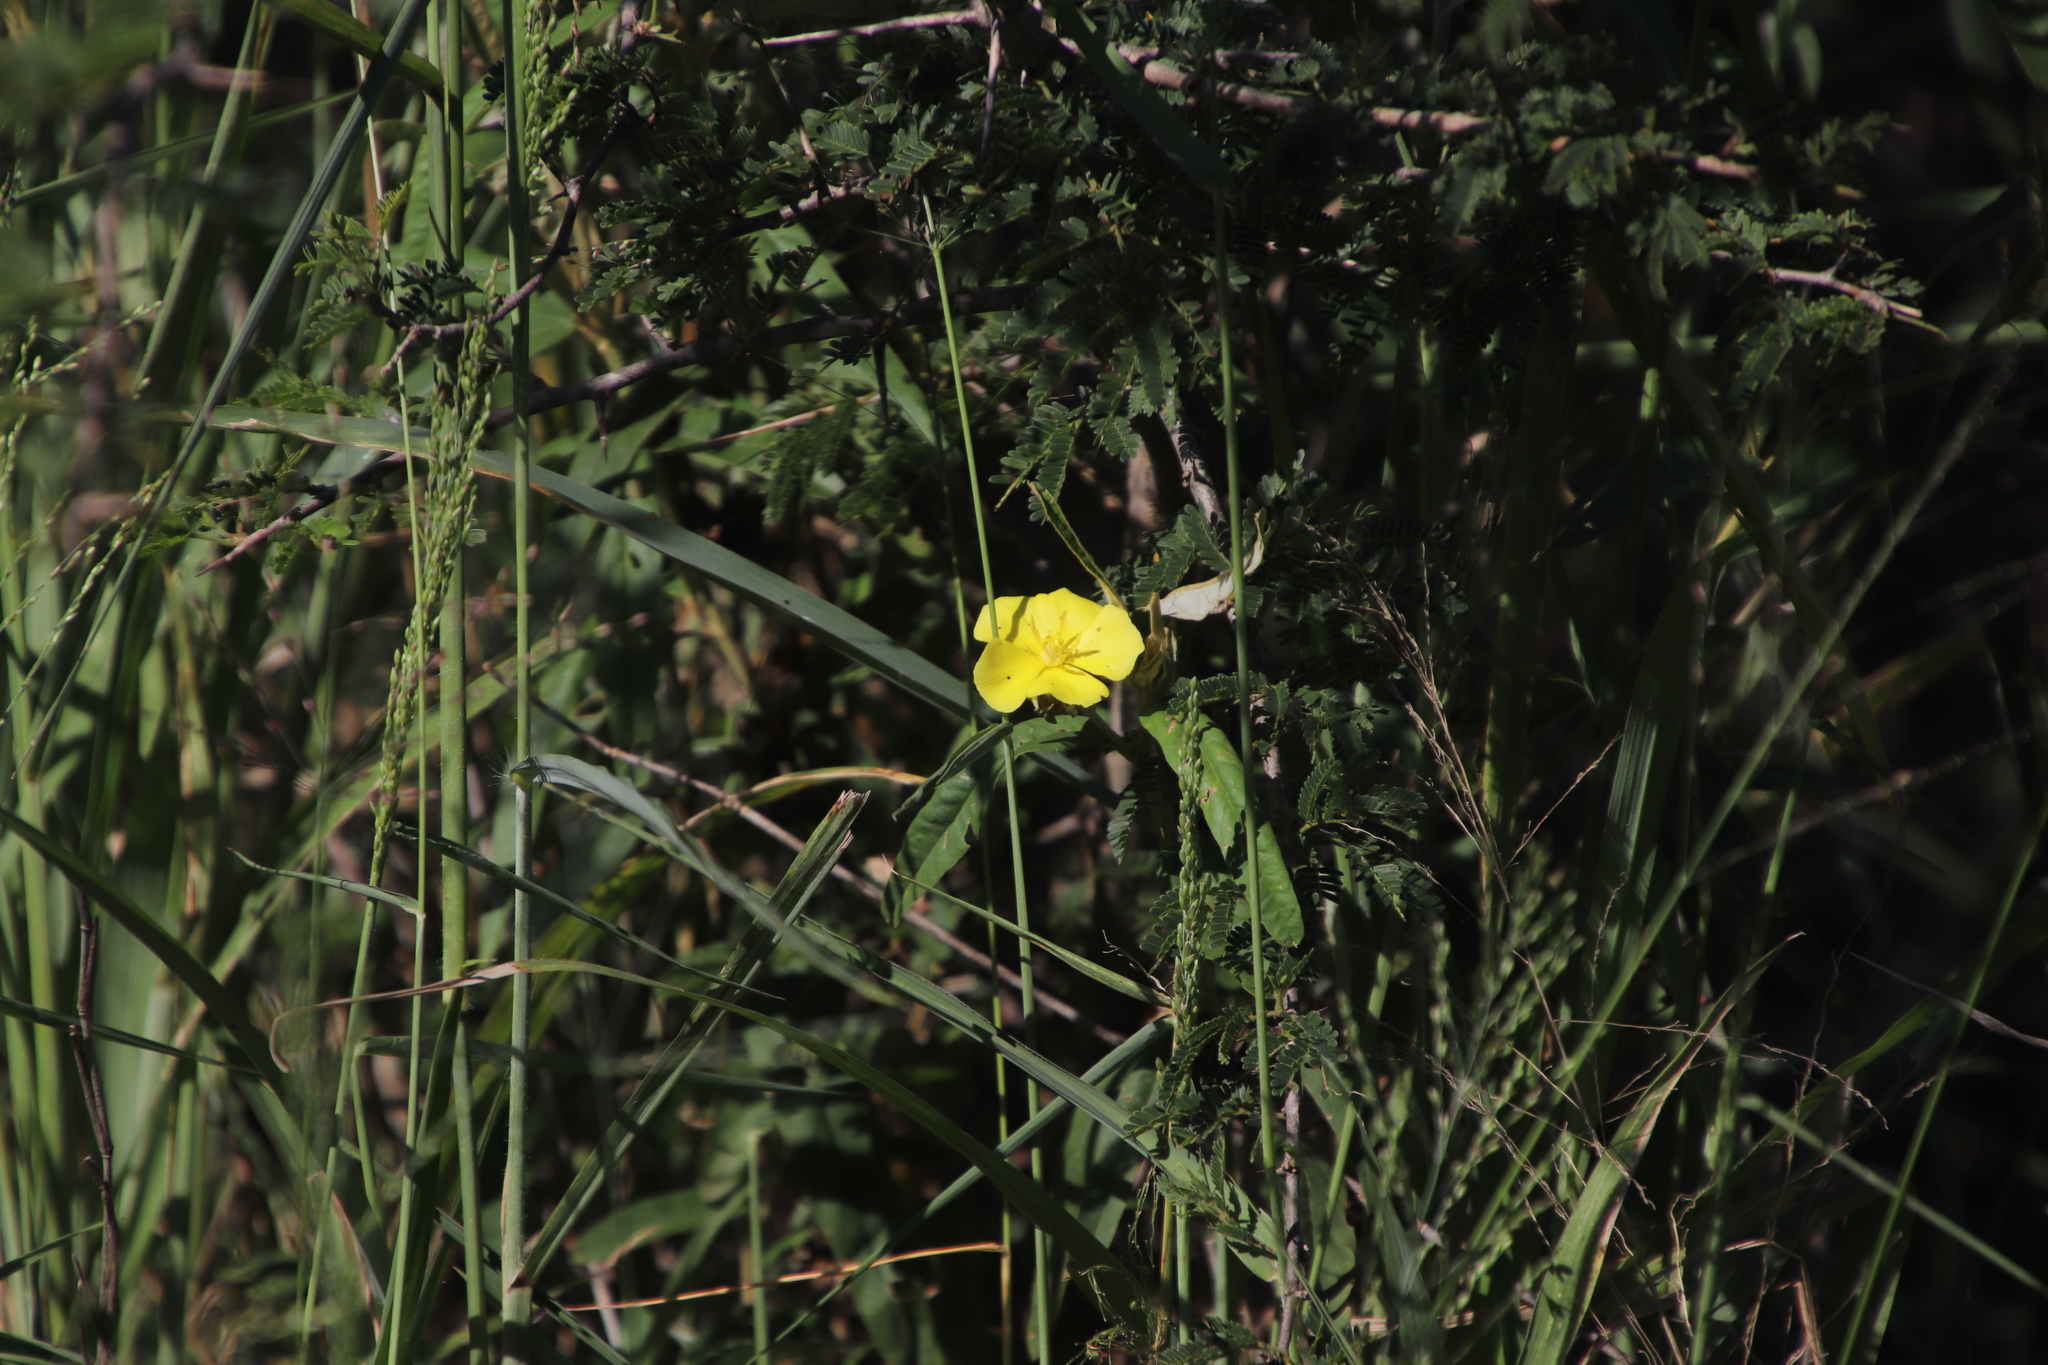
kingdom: Plantae
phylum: Tracheophyta
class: Magnoliopsida
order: Malvales
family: Malvaceae
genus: Melhania
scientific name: Melhania prostrata
